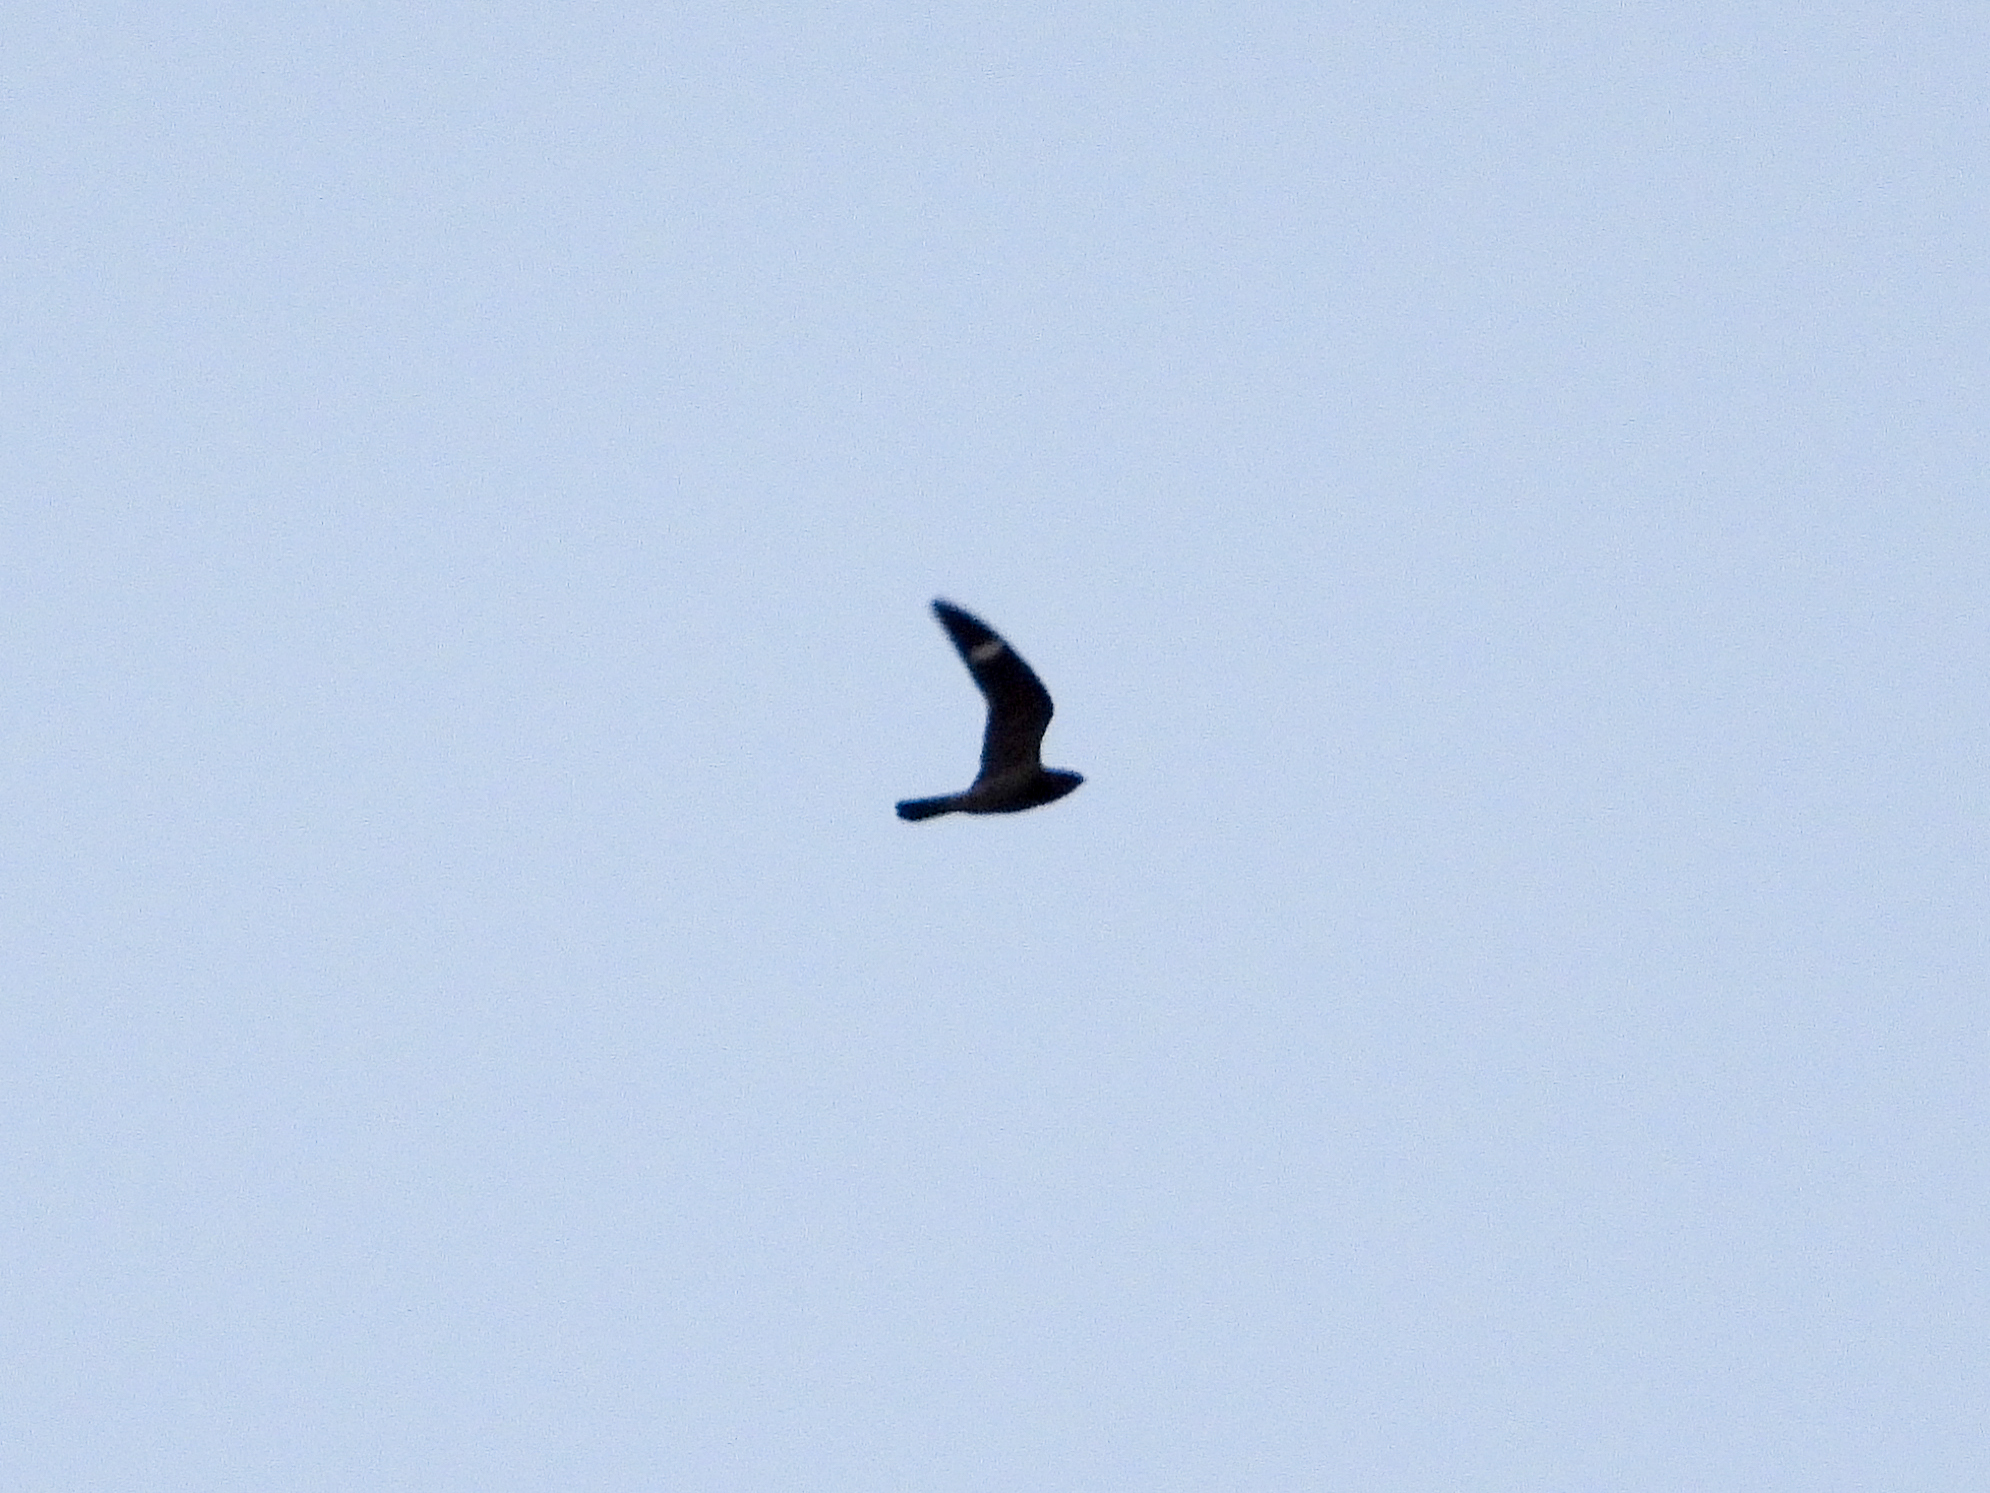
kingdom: Animalia
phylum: Chordata
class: Aves
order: Caprimulgiformes
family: Caprimulgidae
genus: Chordeiles
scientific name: Chordeiles minor
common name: Common nighthawk
